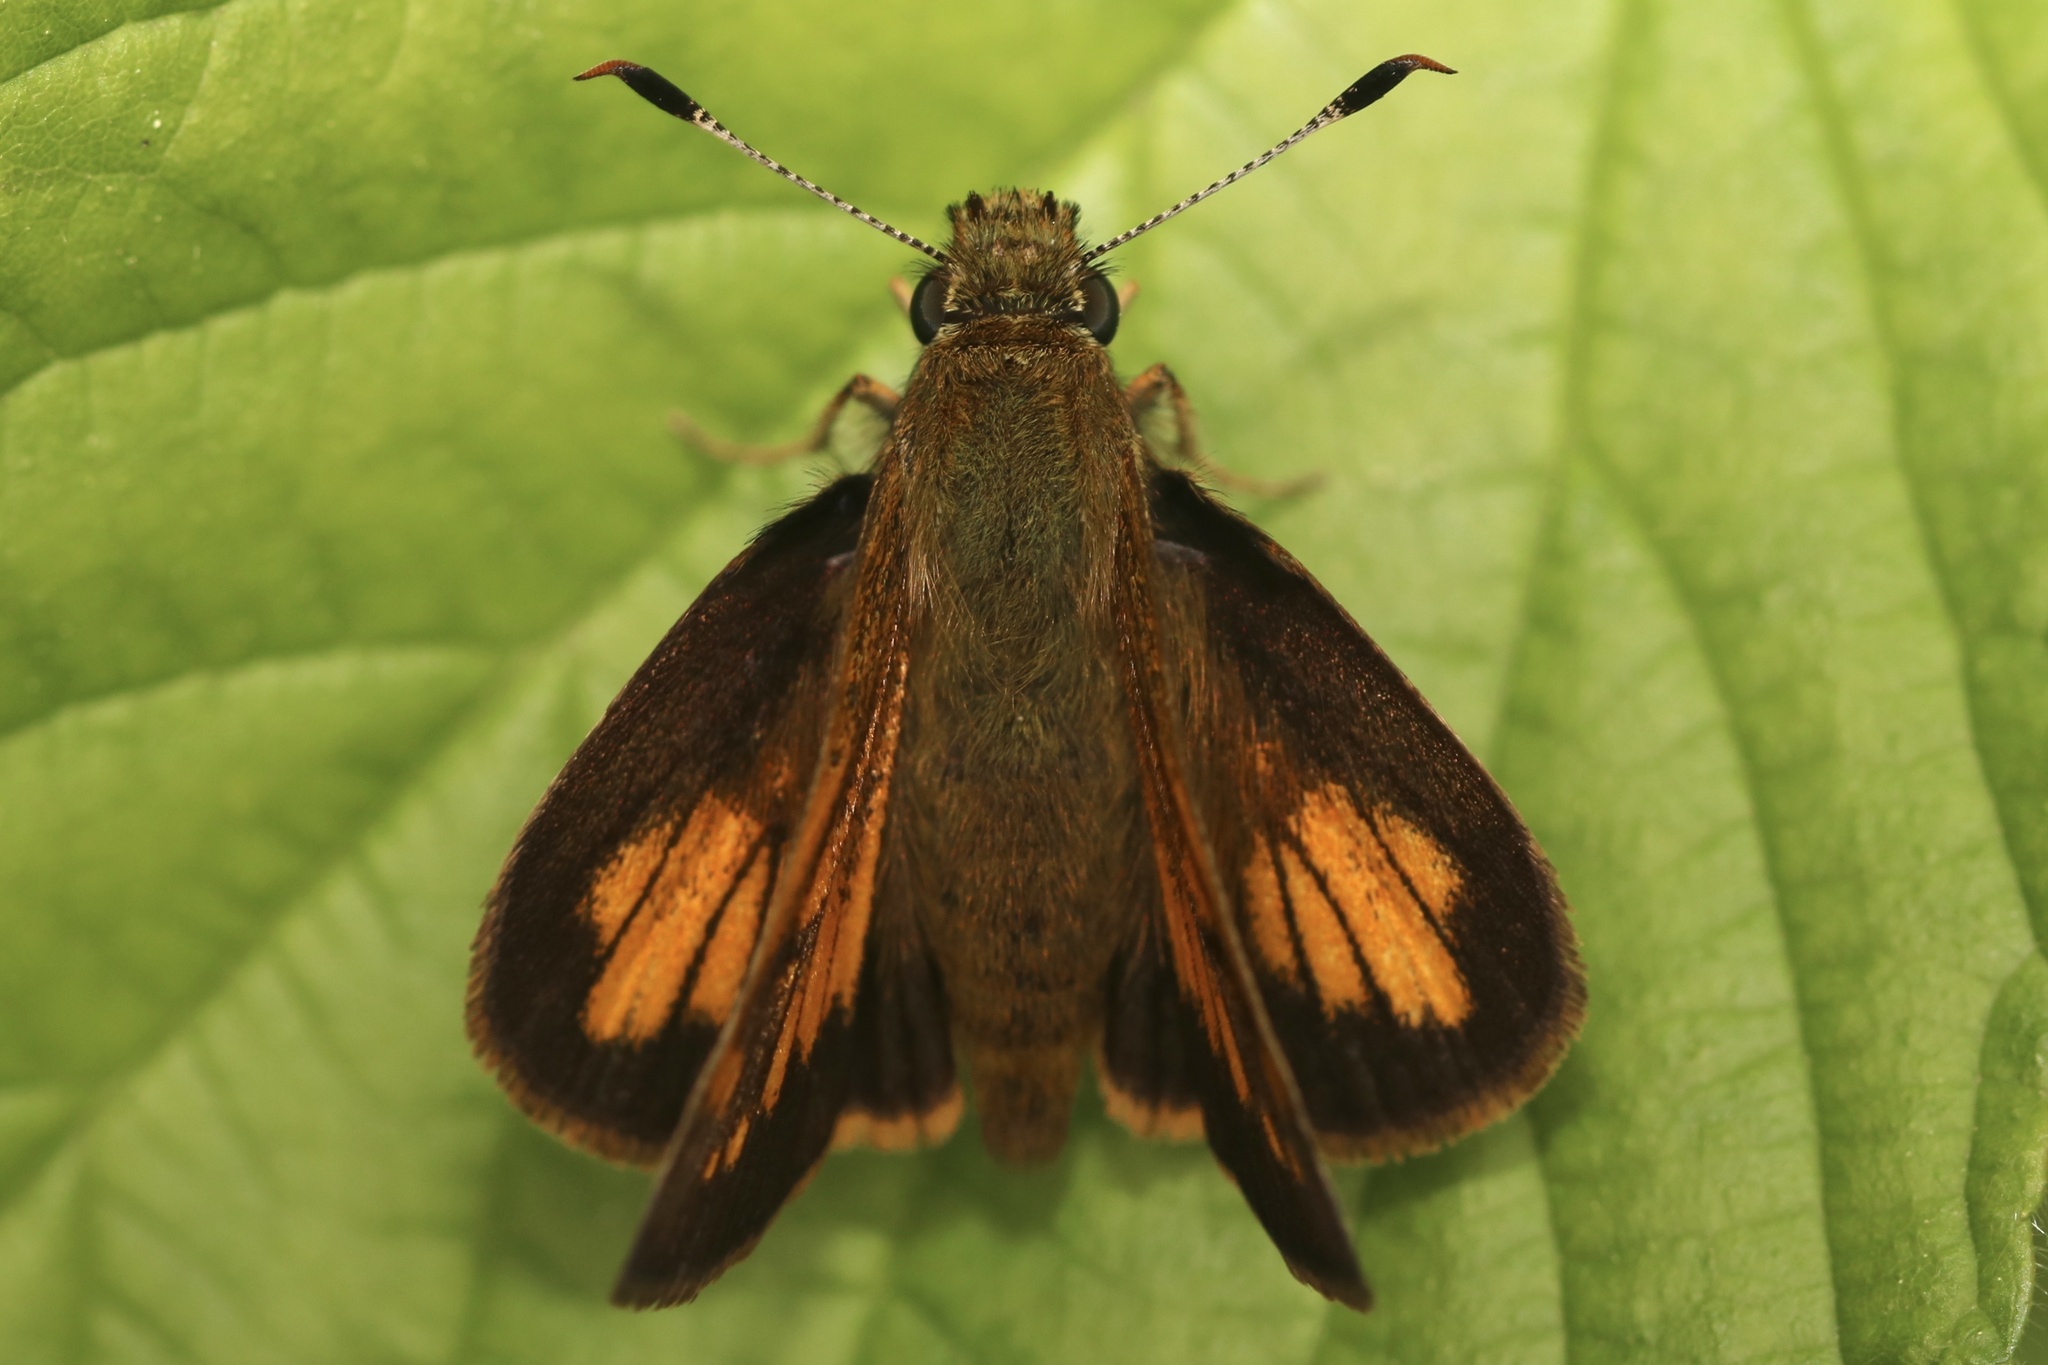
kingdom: Animalia
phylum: Arthropoda
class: Insecta
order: Lepidoptera
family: Hesperiidae
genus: Lon
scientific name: Lon hobomok
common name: Hobomok skipper
